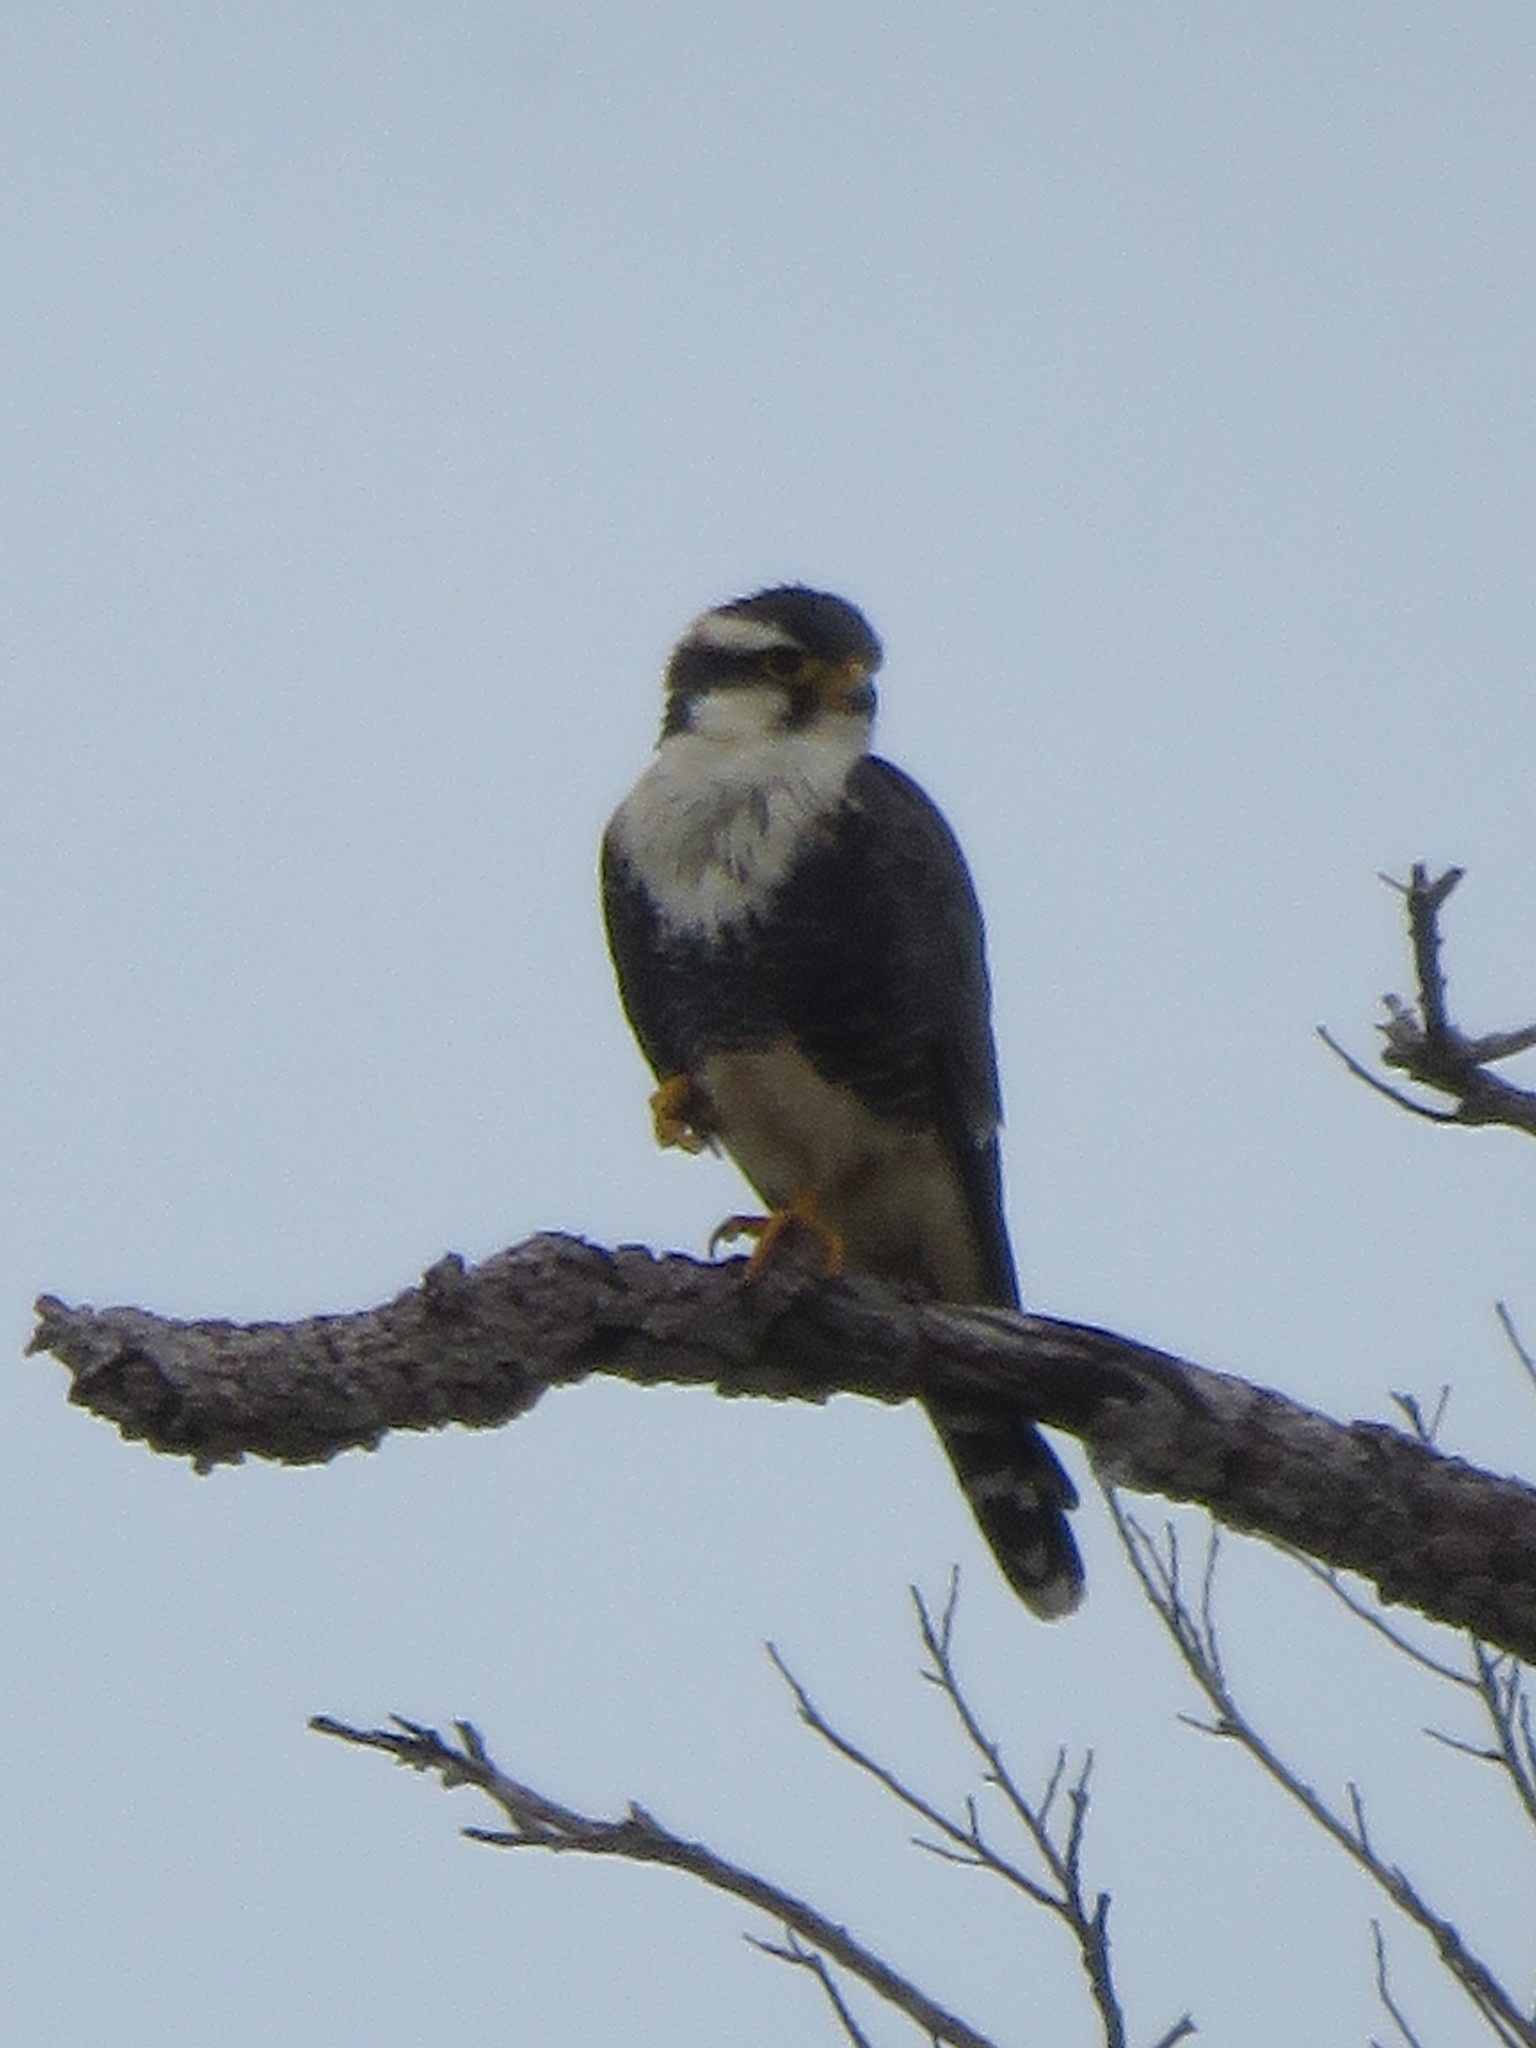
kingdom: Animalia
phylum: Chordata
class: Aves
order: Falconiformes
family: Falconidae
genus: Falco
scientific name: Falco femoralis
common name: Aplomado falcon
